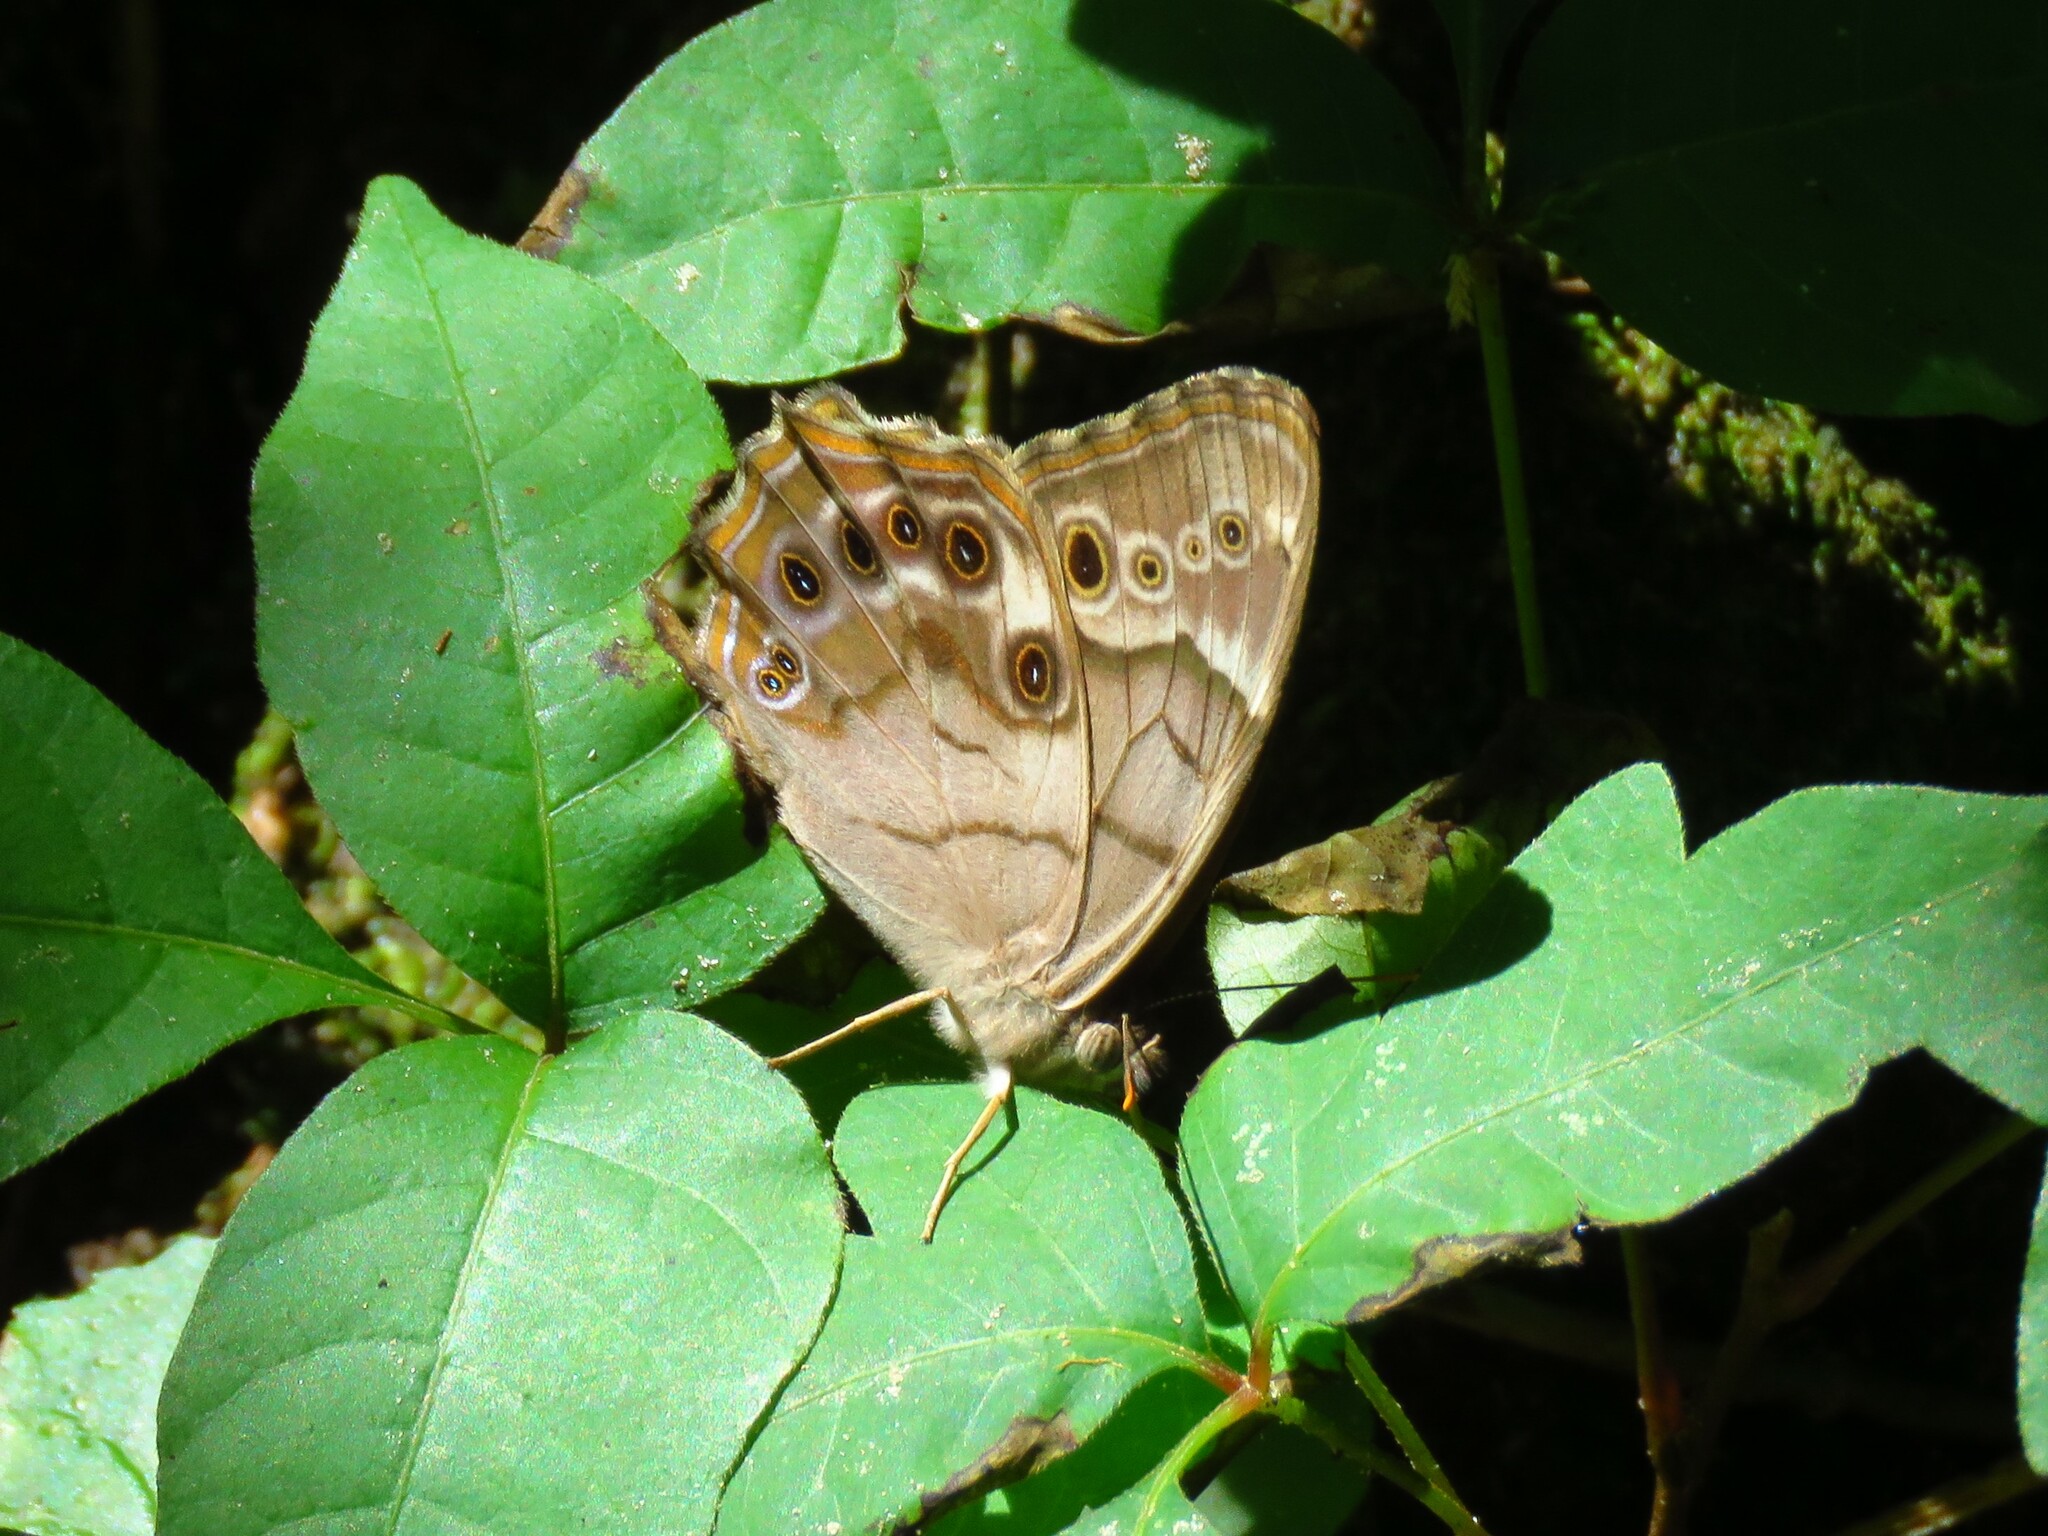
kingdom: Animalia
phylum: Arthropoda
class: Insecta
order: Lepidoptera
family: Nymphalidae
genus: Enodia
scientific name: Enodia portlandia
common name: Southern pearly-eye
